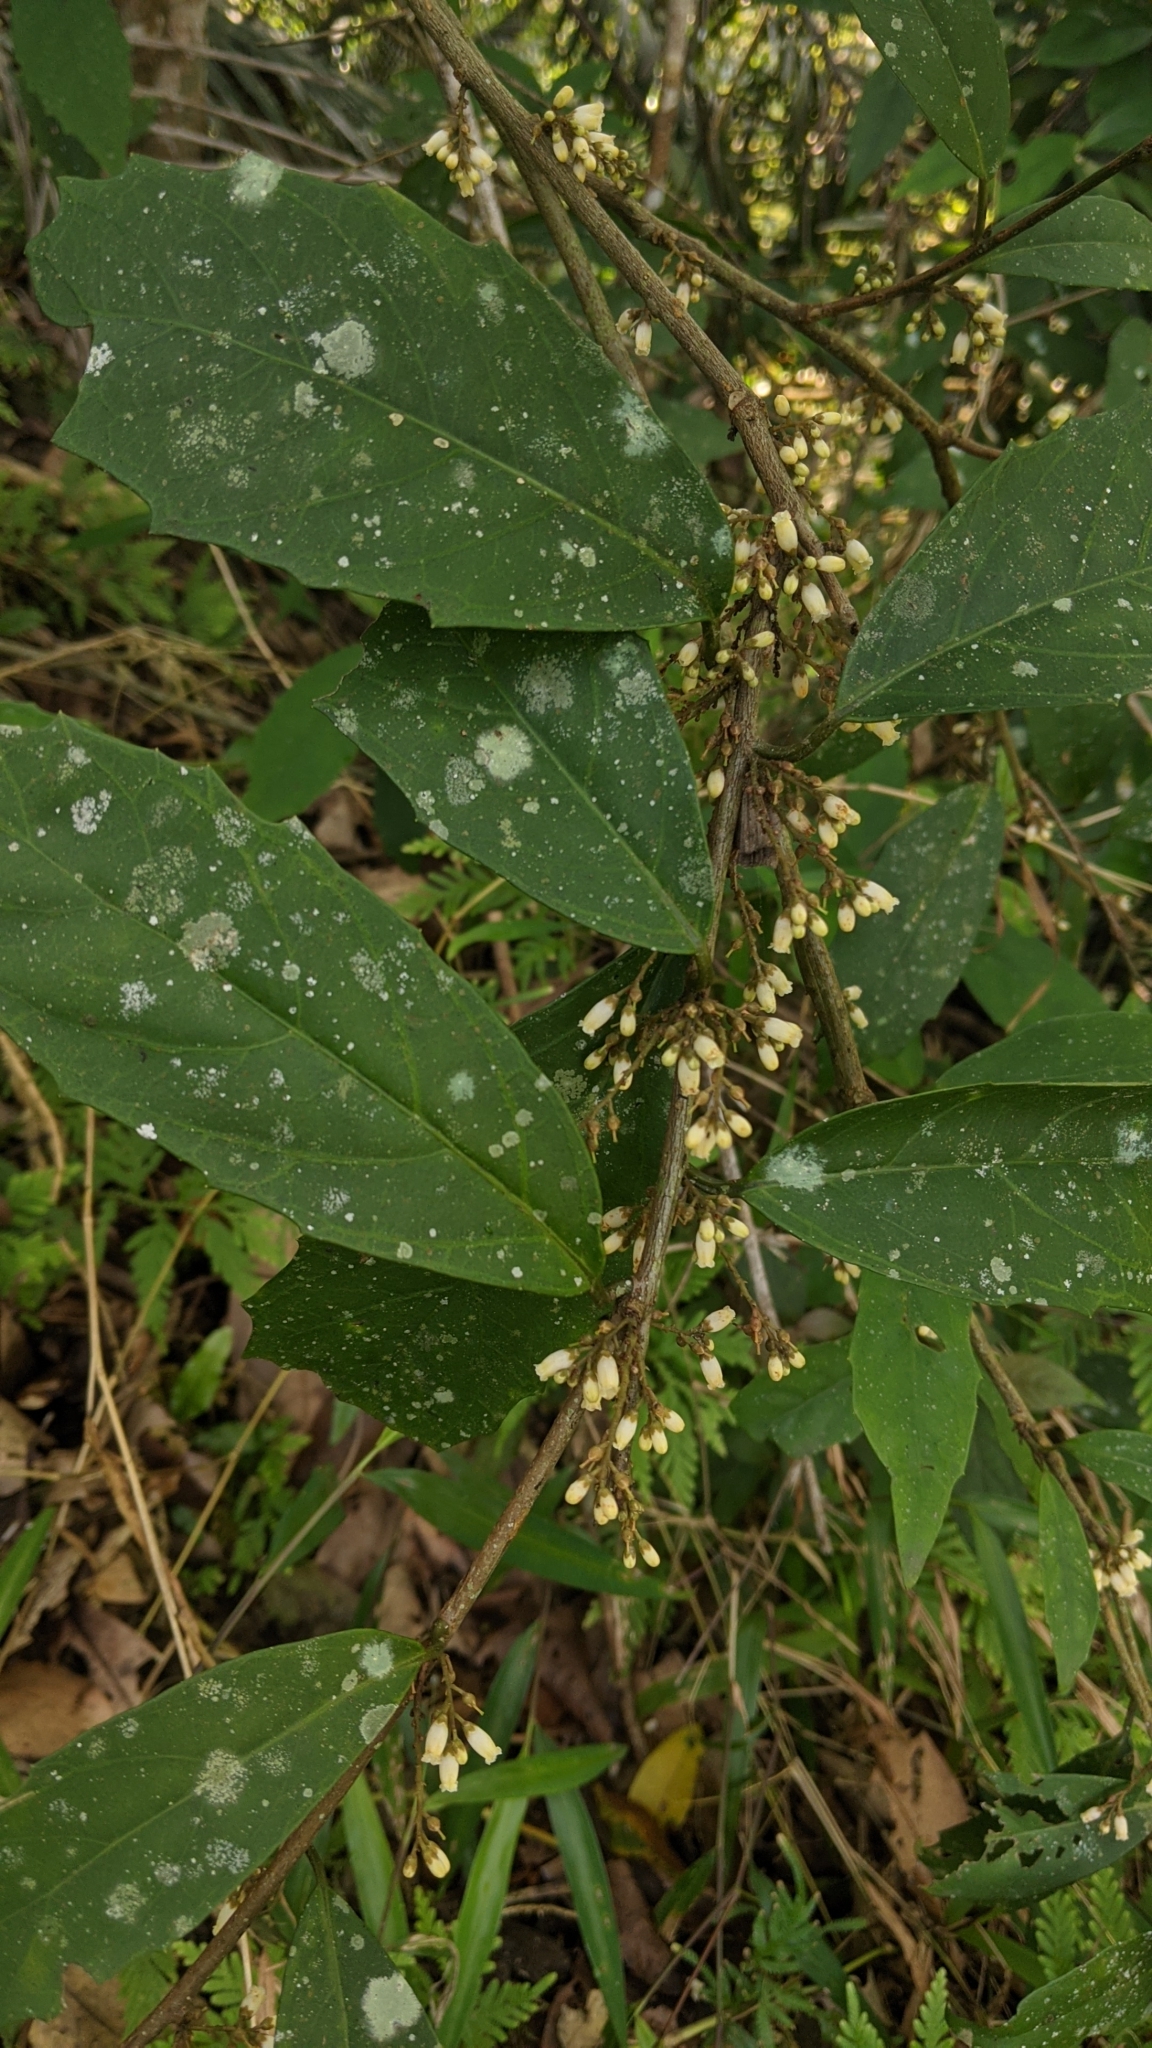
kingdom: Plantae
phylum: Tracheophyta
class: Magnoliopsida
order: Ericales
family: Primulaceae
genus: Maesa
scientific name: Maesa japonica
